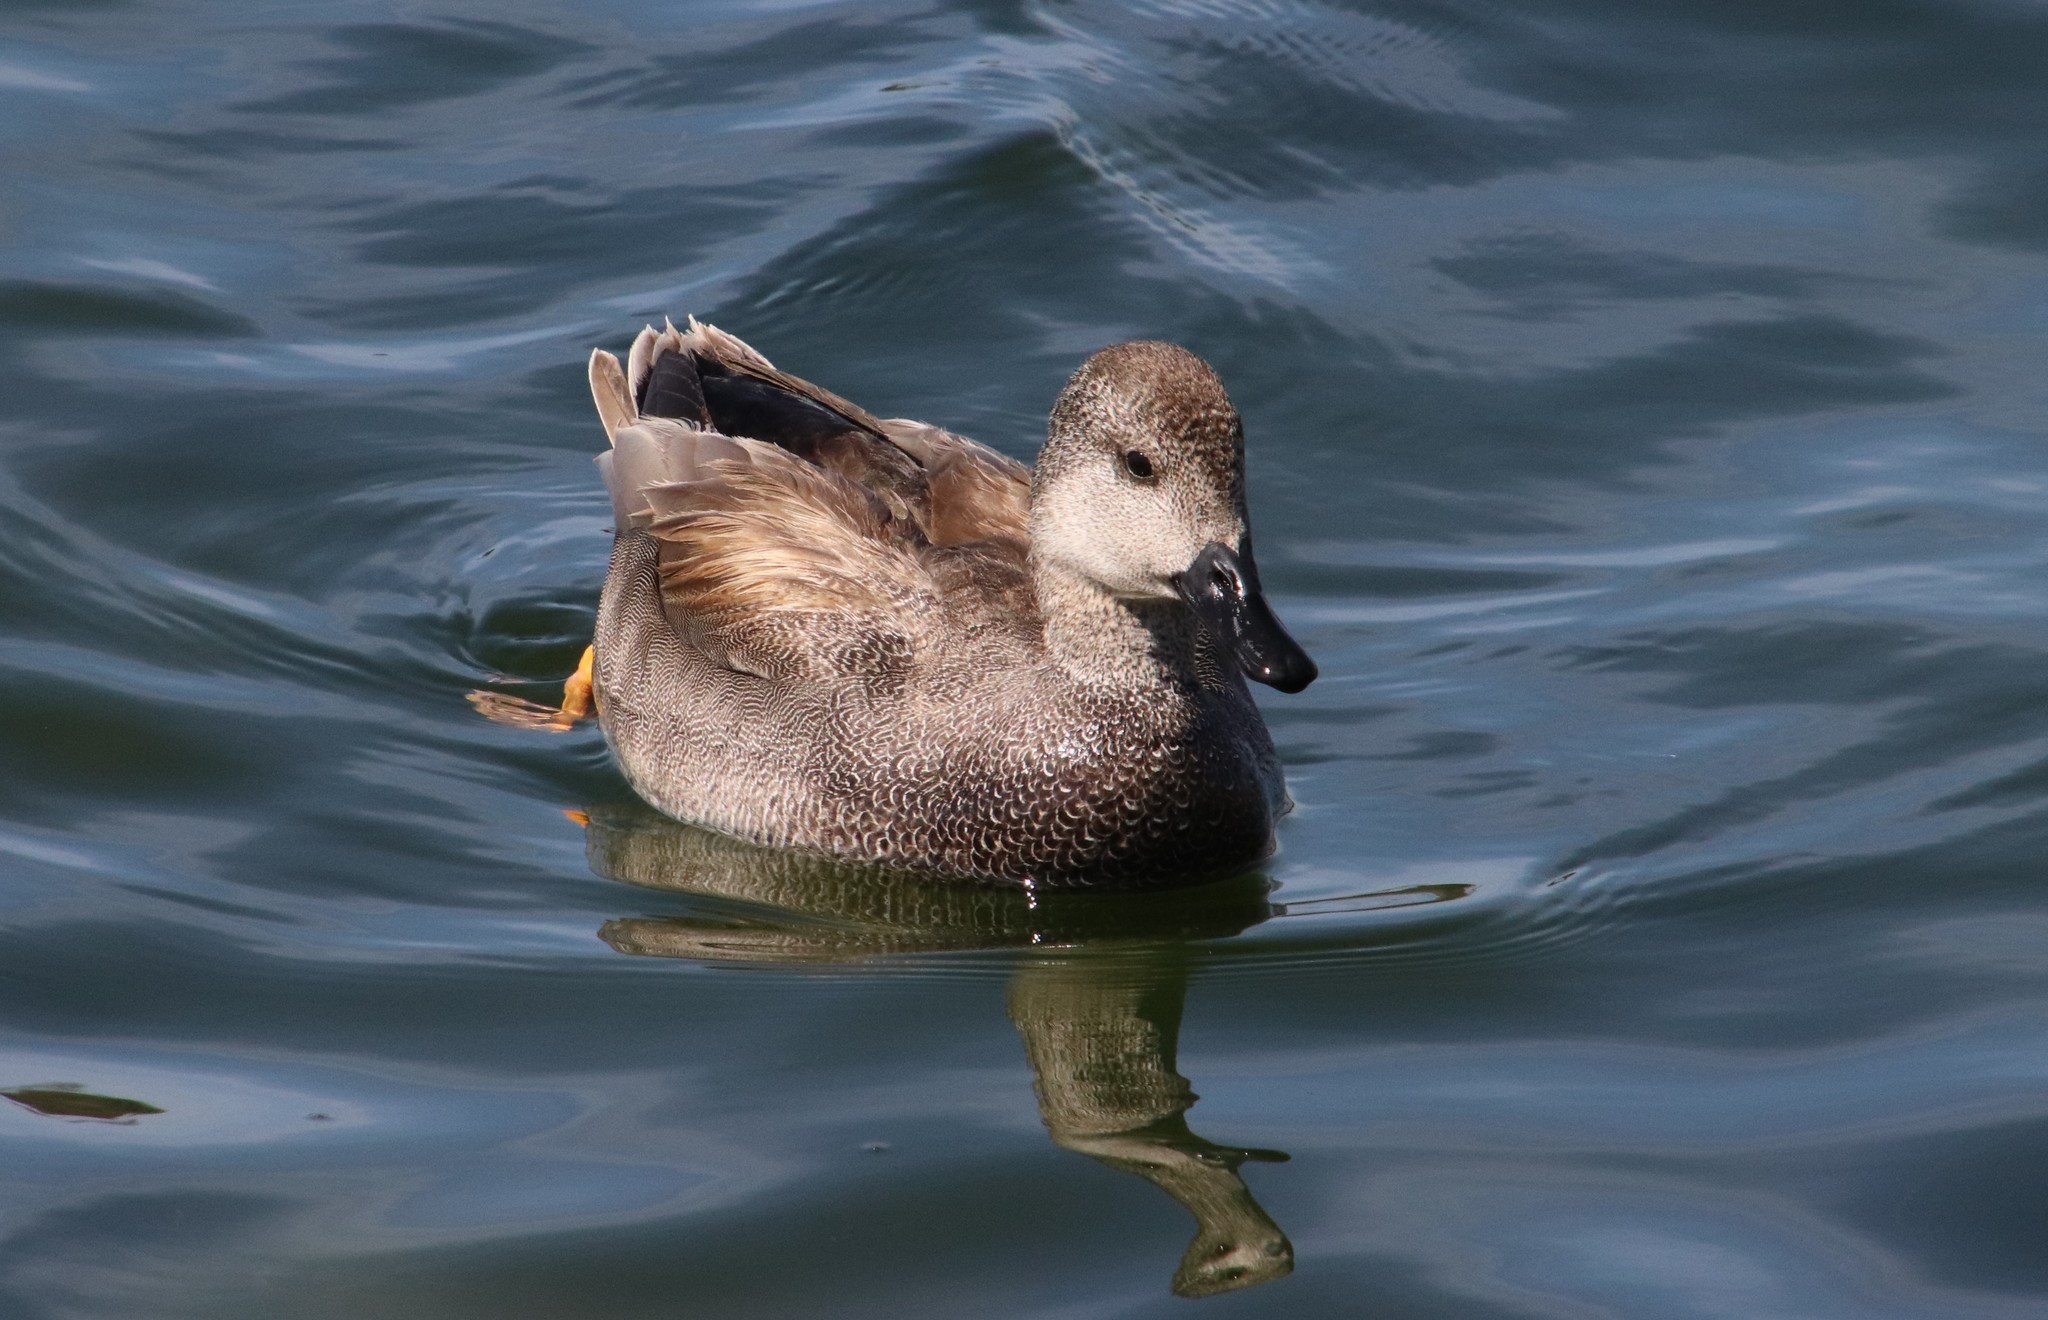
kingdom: Animalia
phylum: Chordata
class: Aves
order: Anseriformes
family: Anatidae
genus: Mareca
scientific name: Mareca strepera
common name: Gadwall
